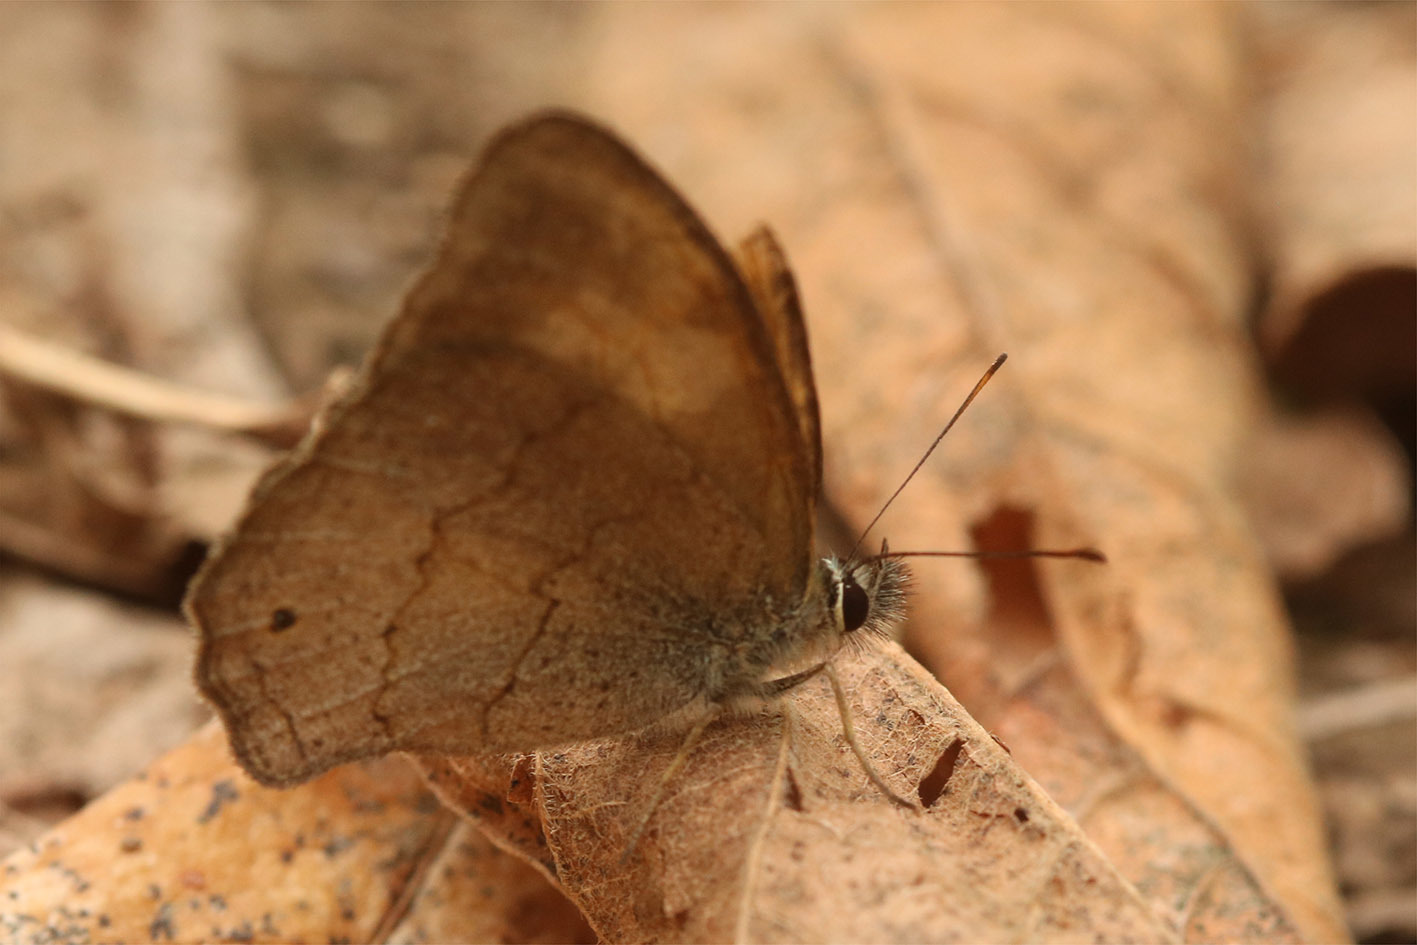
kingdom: Animalia
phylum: Arthropoda
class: Insecta
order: Lepidoptera
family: Nymphalidae
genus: Euptychia
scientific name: Euptychia
